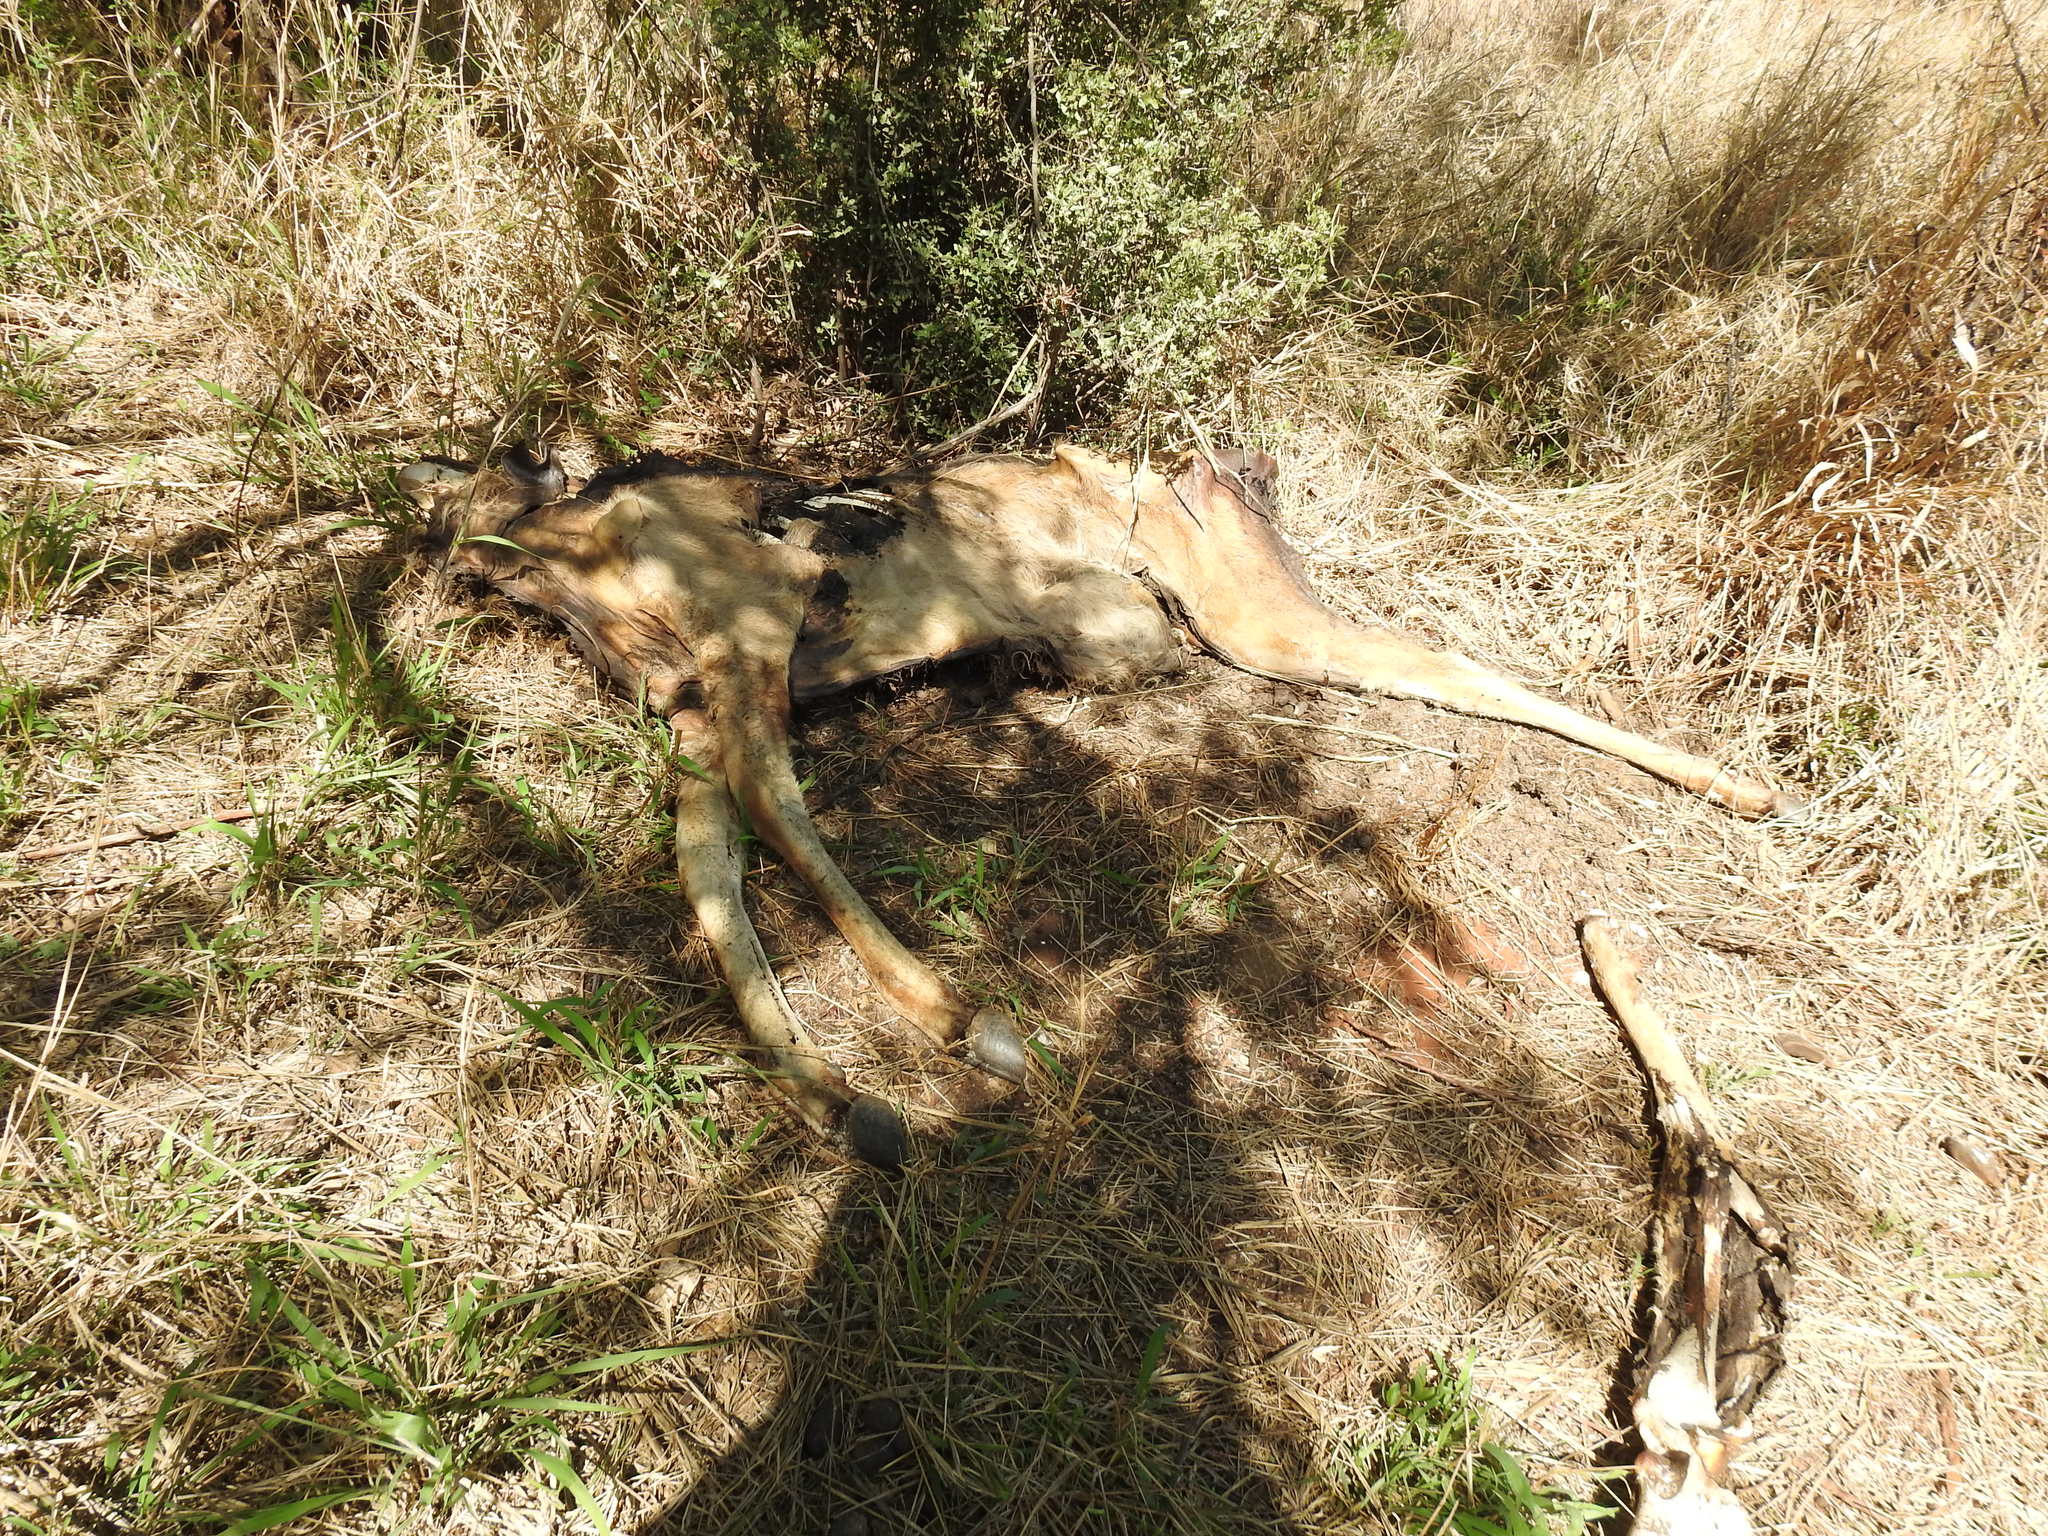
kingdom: Animalia
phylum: Chordata
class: Mammalia
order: Artiodactyla
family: Bovidae
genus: Tragelaphus
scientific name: Tragelaphus strepsiceros
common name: Greater kudu
